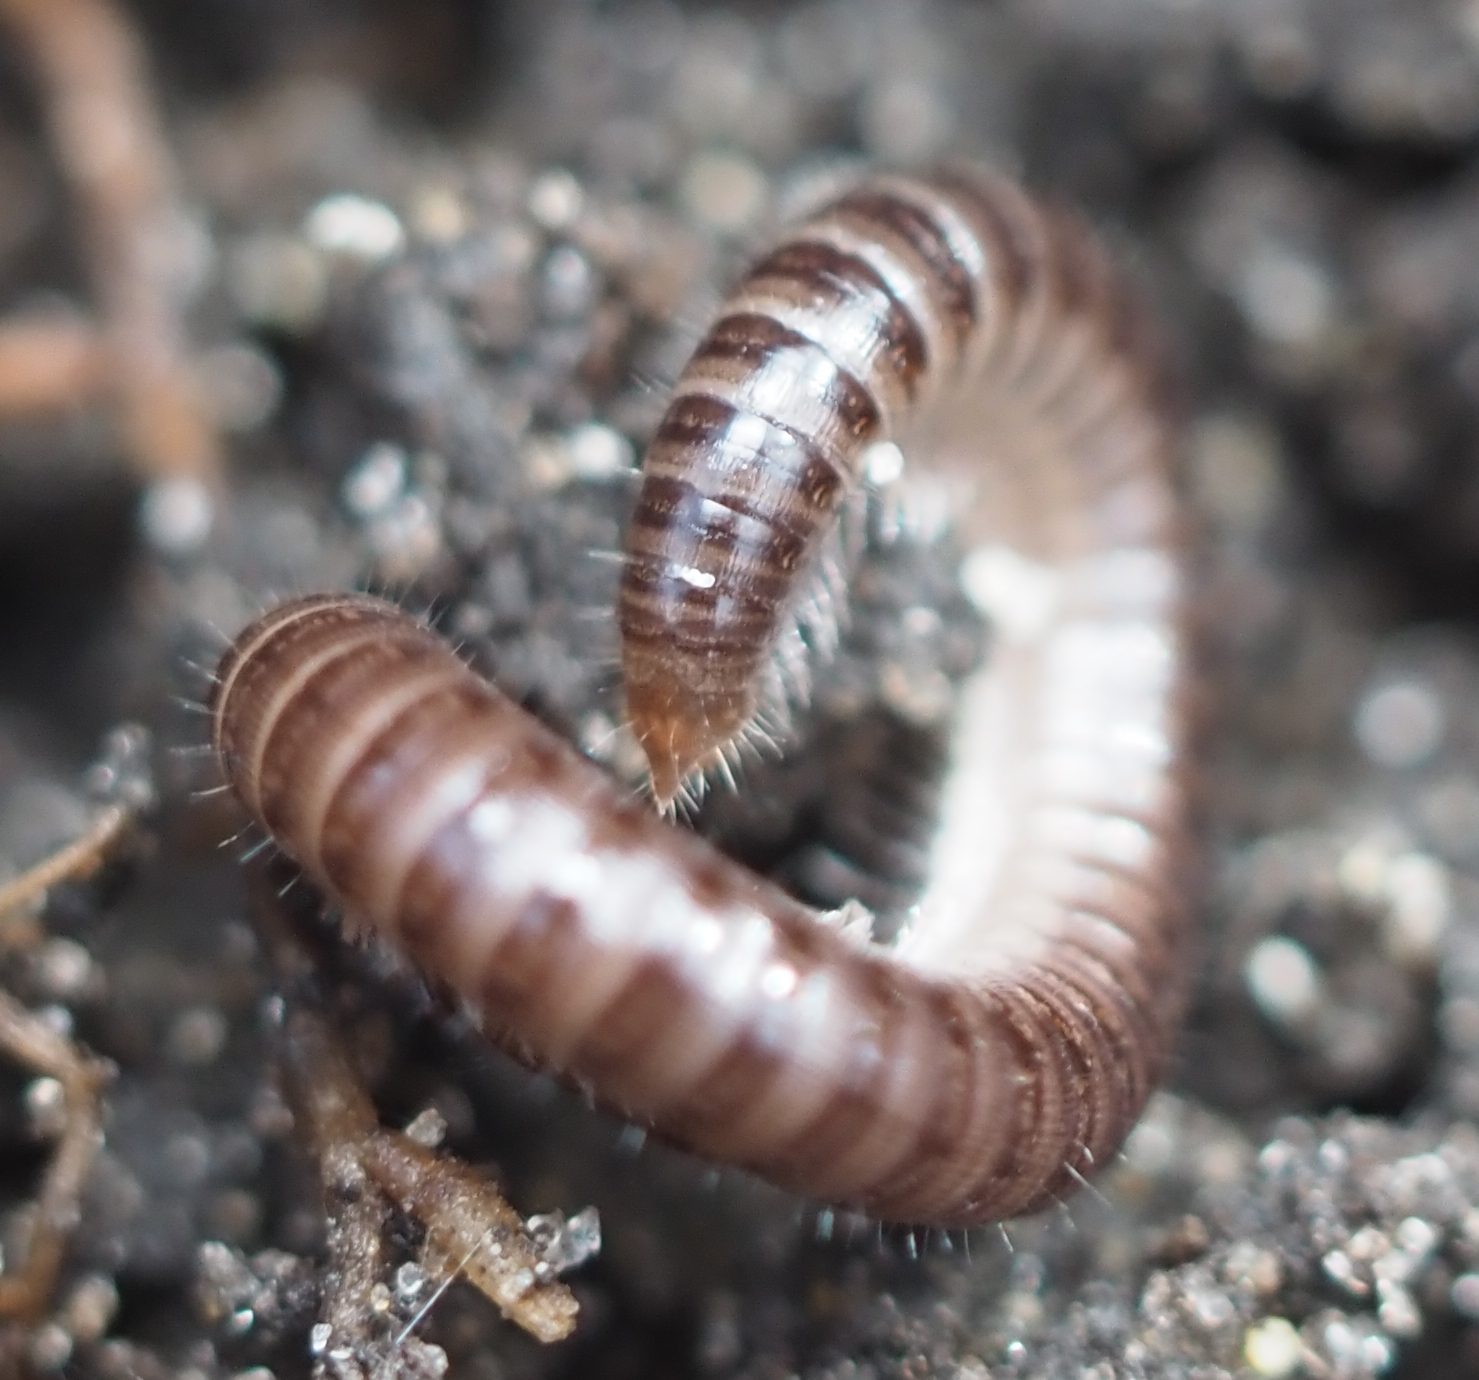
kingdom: Animalia
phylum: Arthropoda
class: Diplopoda
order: Julida
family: Julidae
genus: Ophyiulus
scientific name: Ophyiulus pilosus
